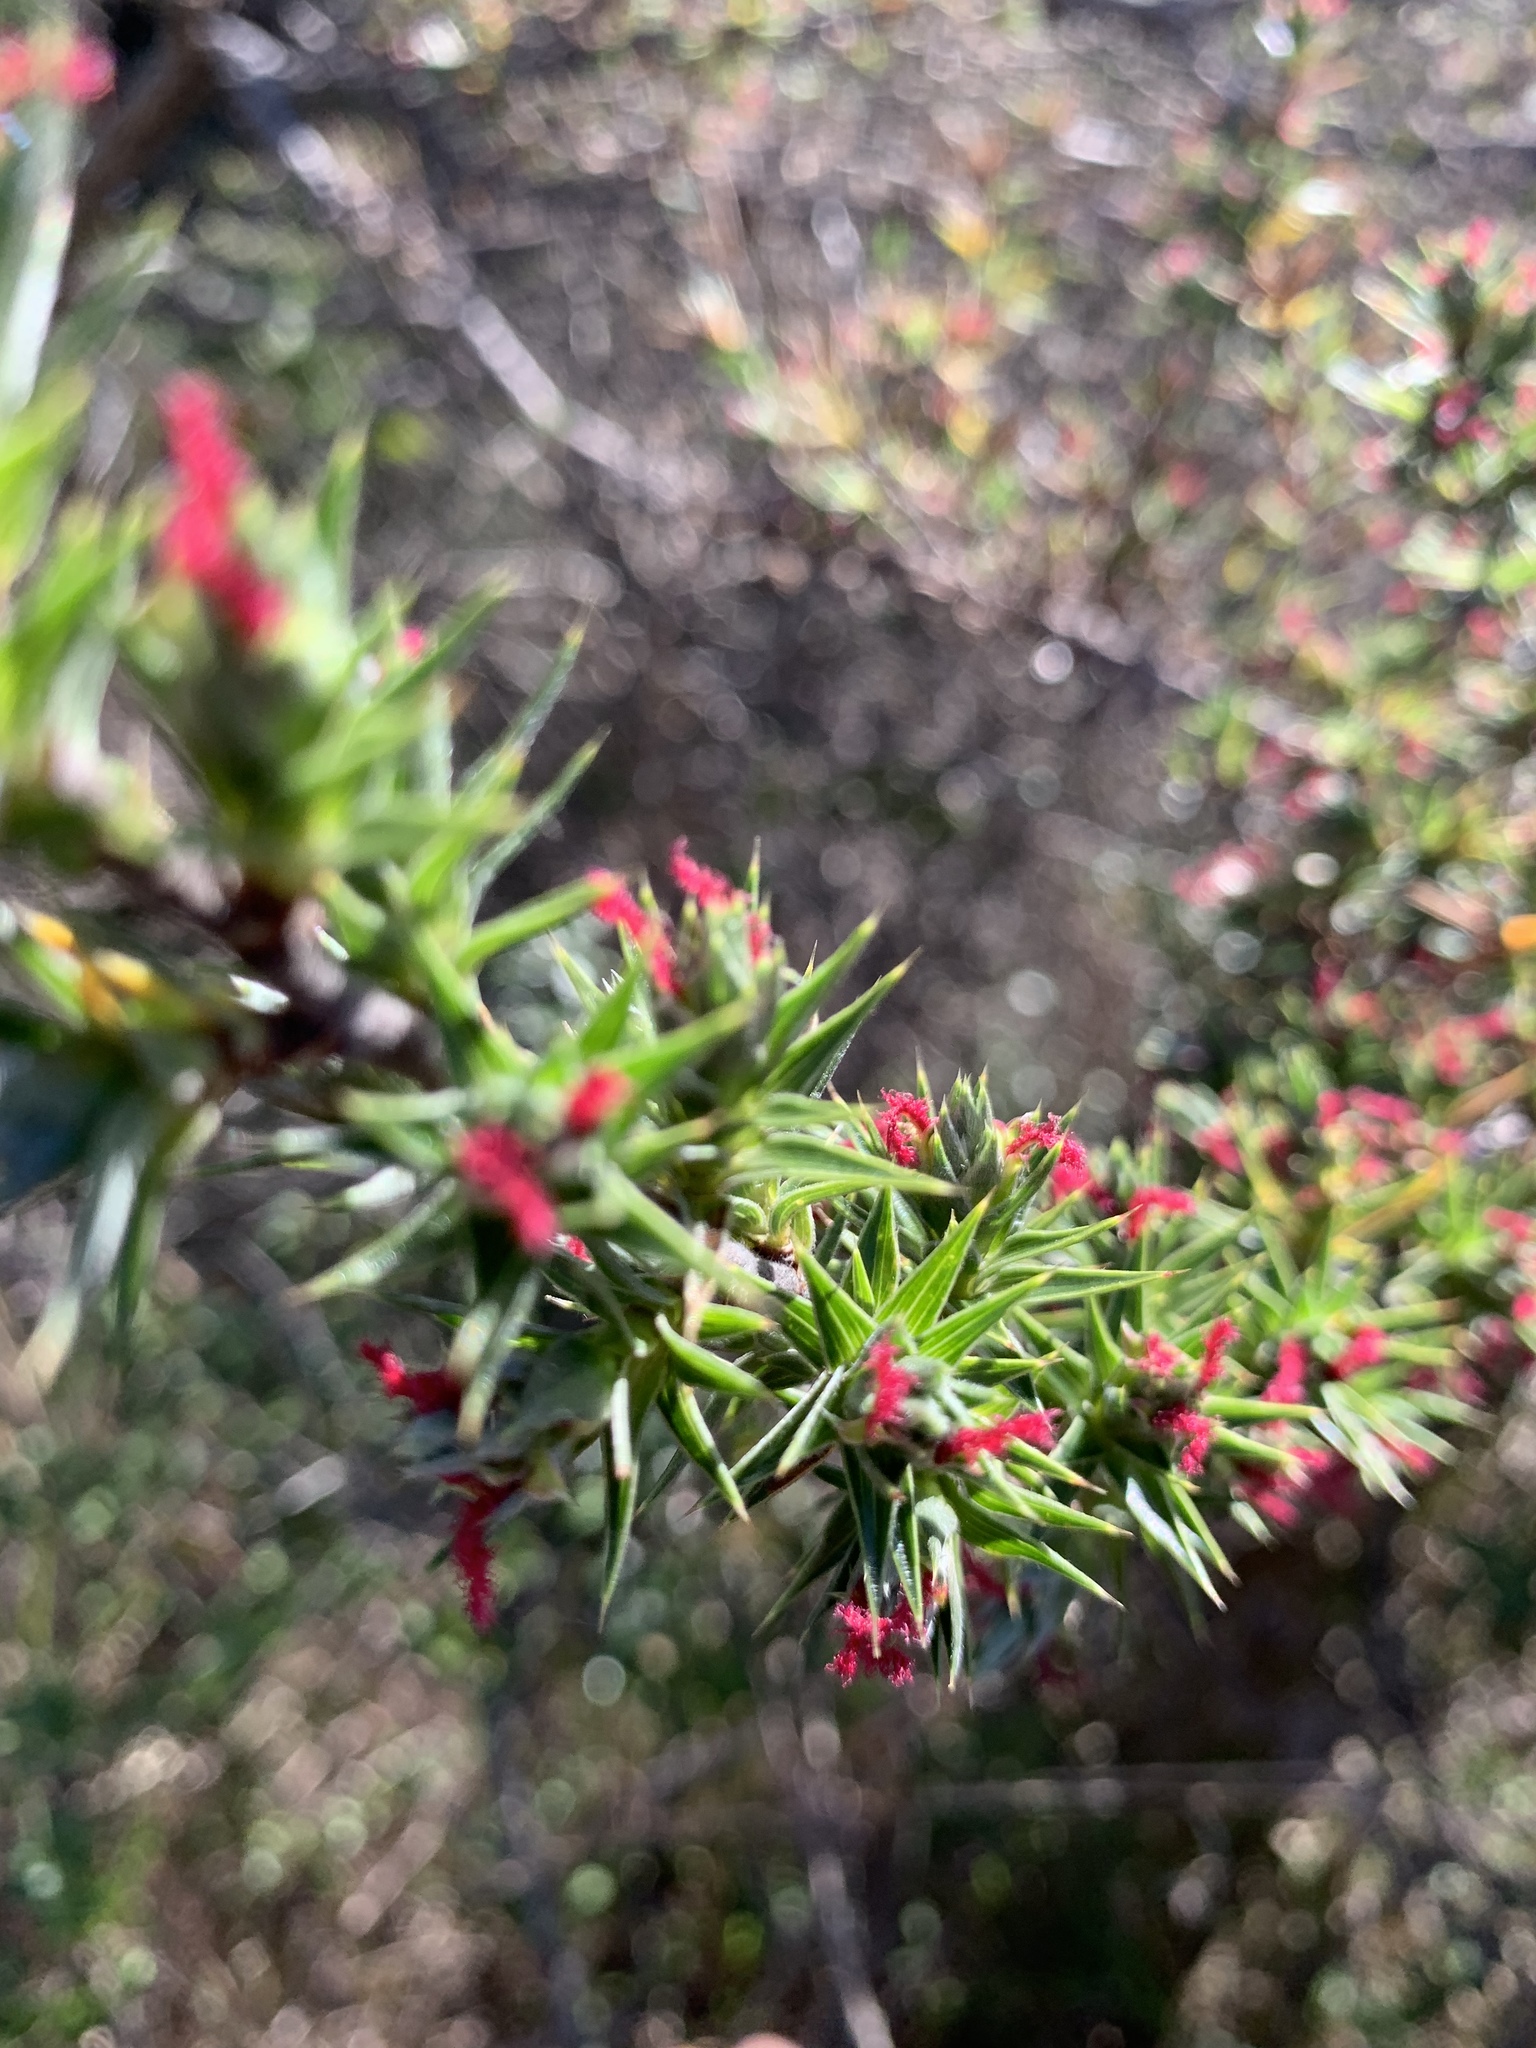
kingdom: Plantae
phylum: Tracheophyta
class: Magnoliopsida
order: Rosales
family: Rosaceae
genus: Cliffortia
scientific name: Cliffortia ruscifolia
